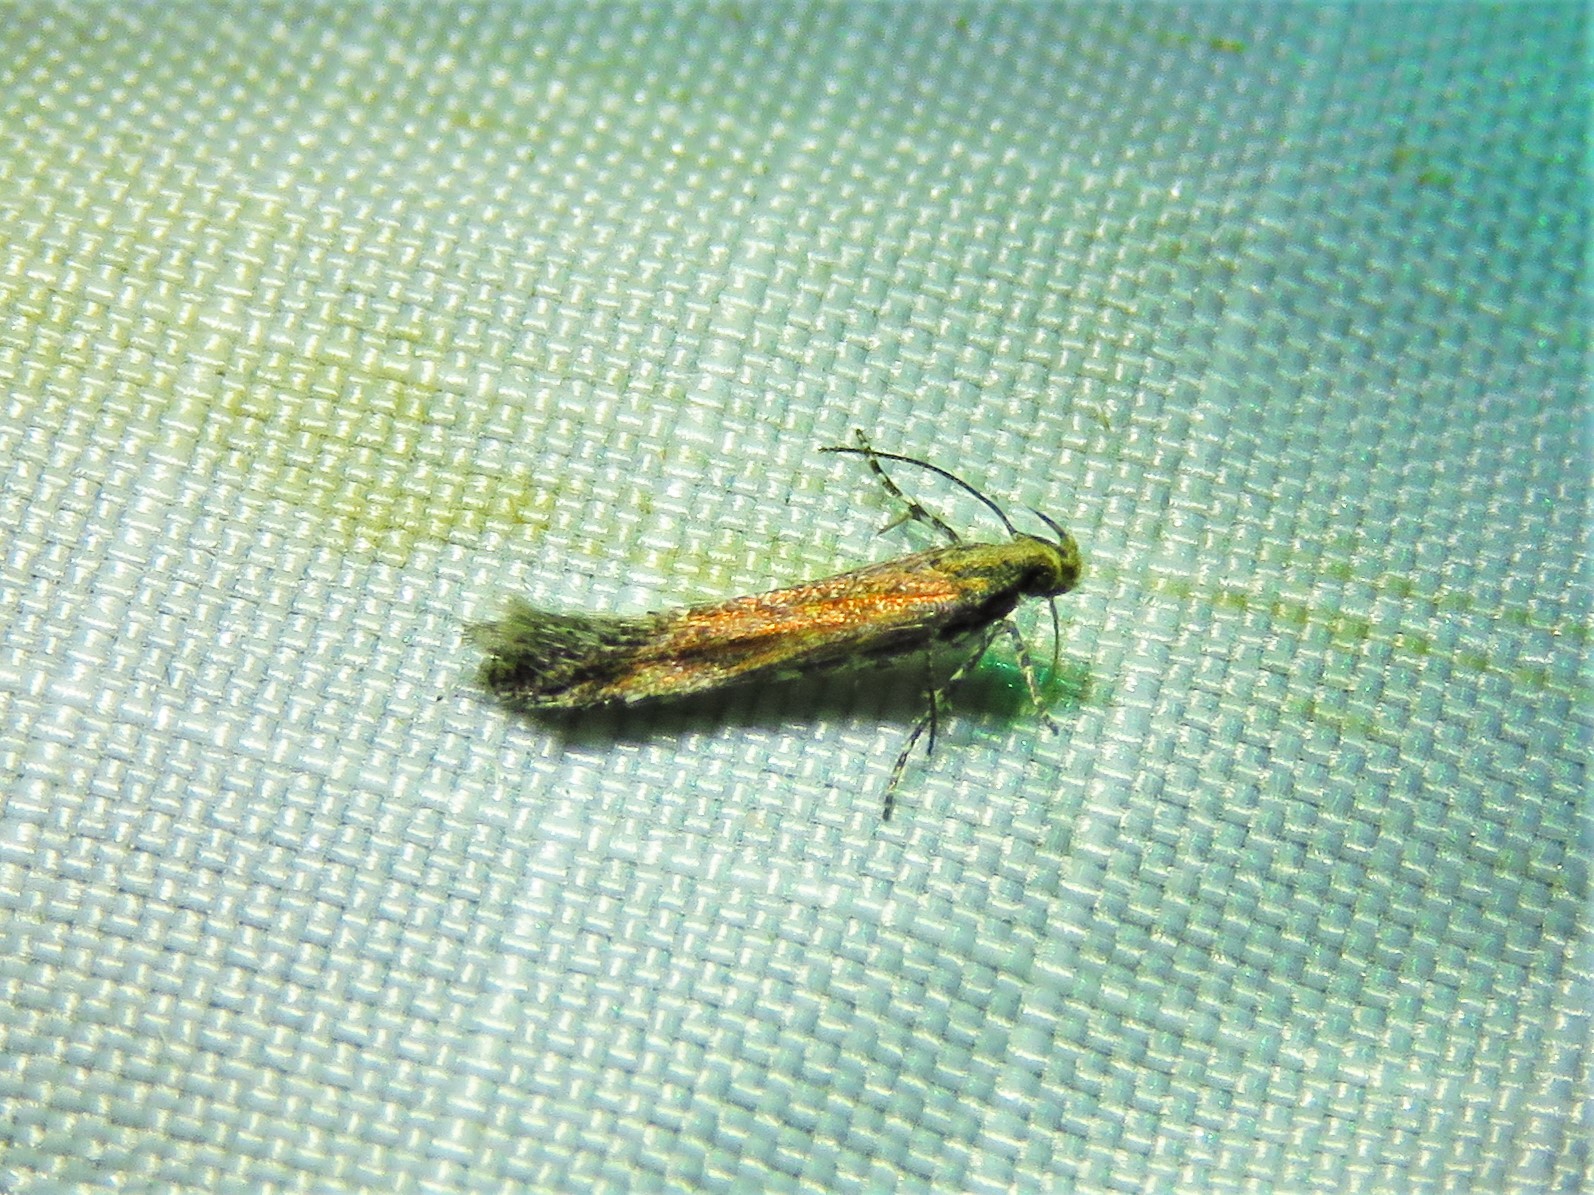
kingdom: Animalia
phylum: Arthropoda
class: Insecta
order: Lepidoptera
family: Gelechiidae
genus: Gnorimoschema
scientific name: Gnorimoschema saphirinella
